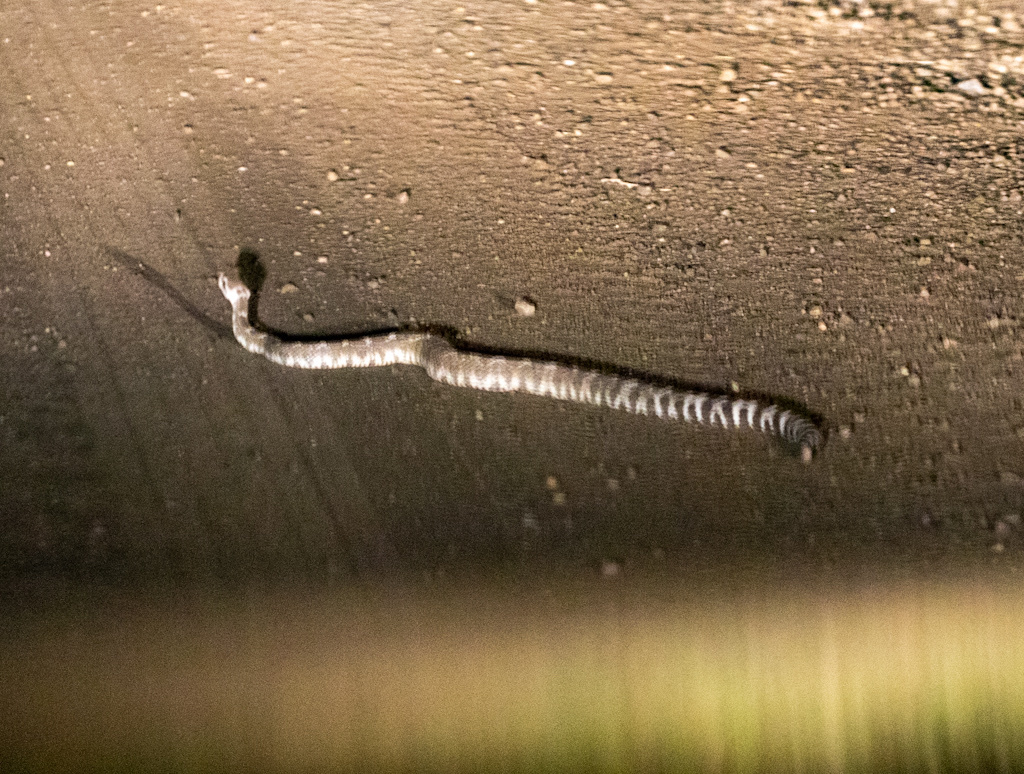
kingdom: Animalia
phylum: Chordata
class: Squamata
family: Viperidae
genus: Crotalus
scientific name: Crotalus oreganus
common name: Abyssus
